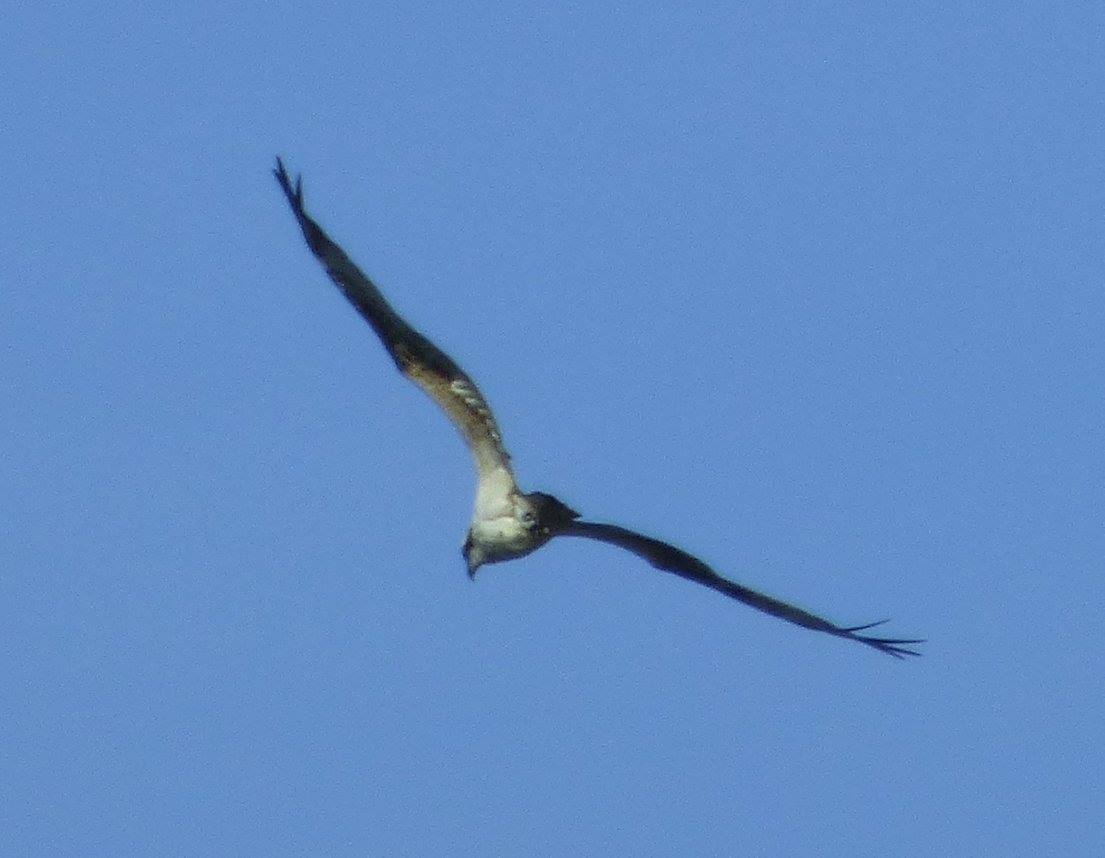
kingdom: Animalia
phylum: Chordata
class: Aves
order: Accipitriformes
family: Pandionidae
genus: Pandion
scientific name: Pandion haliaetus
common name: Osprey
